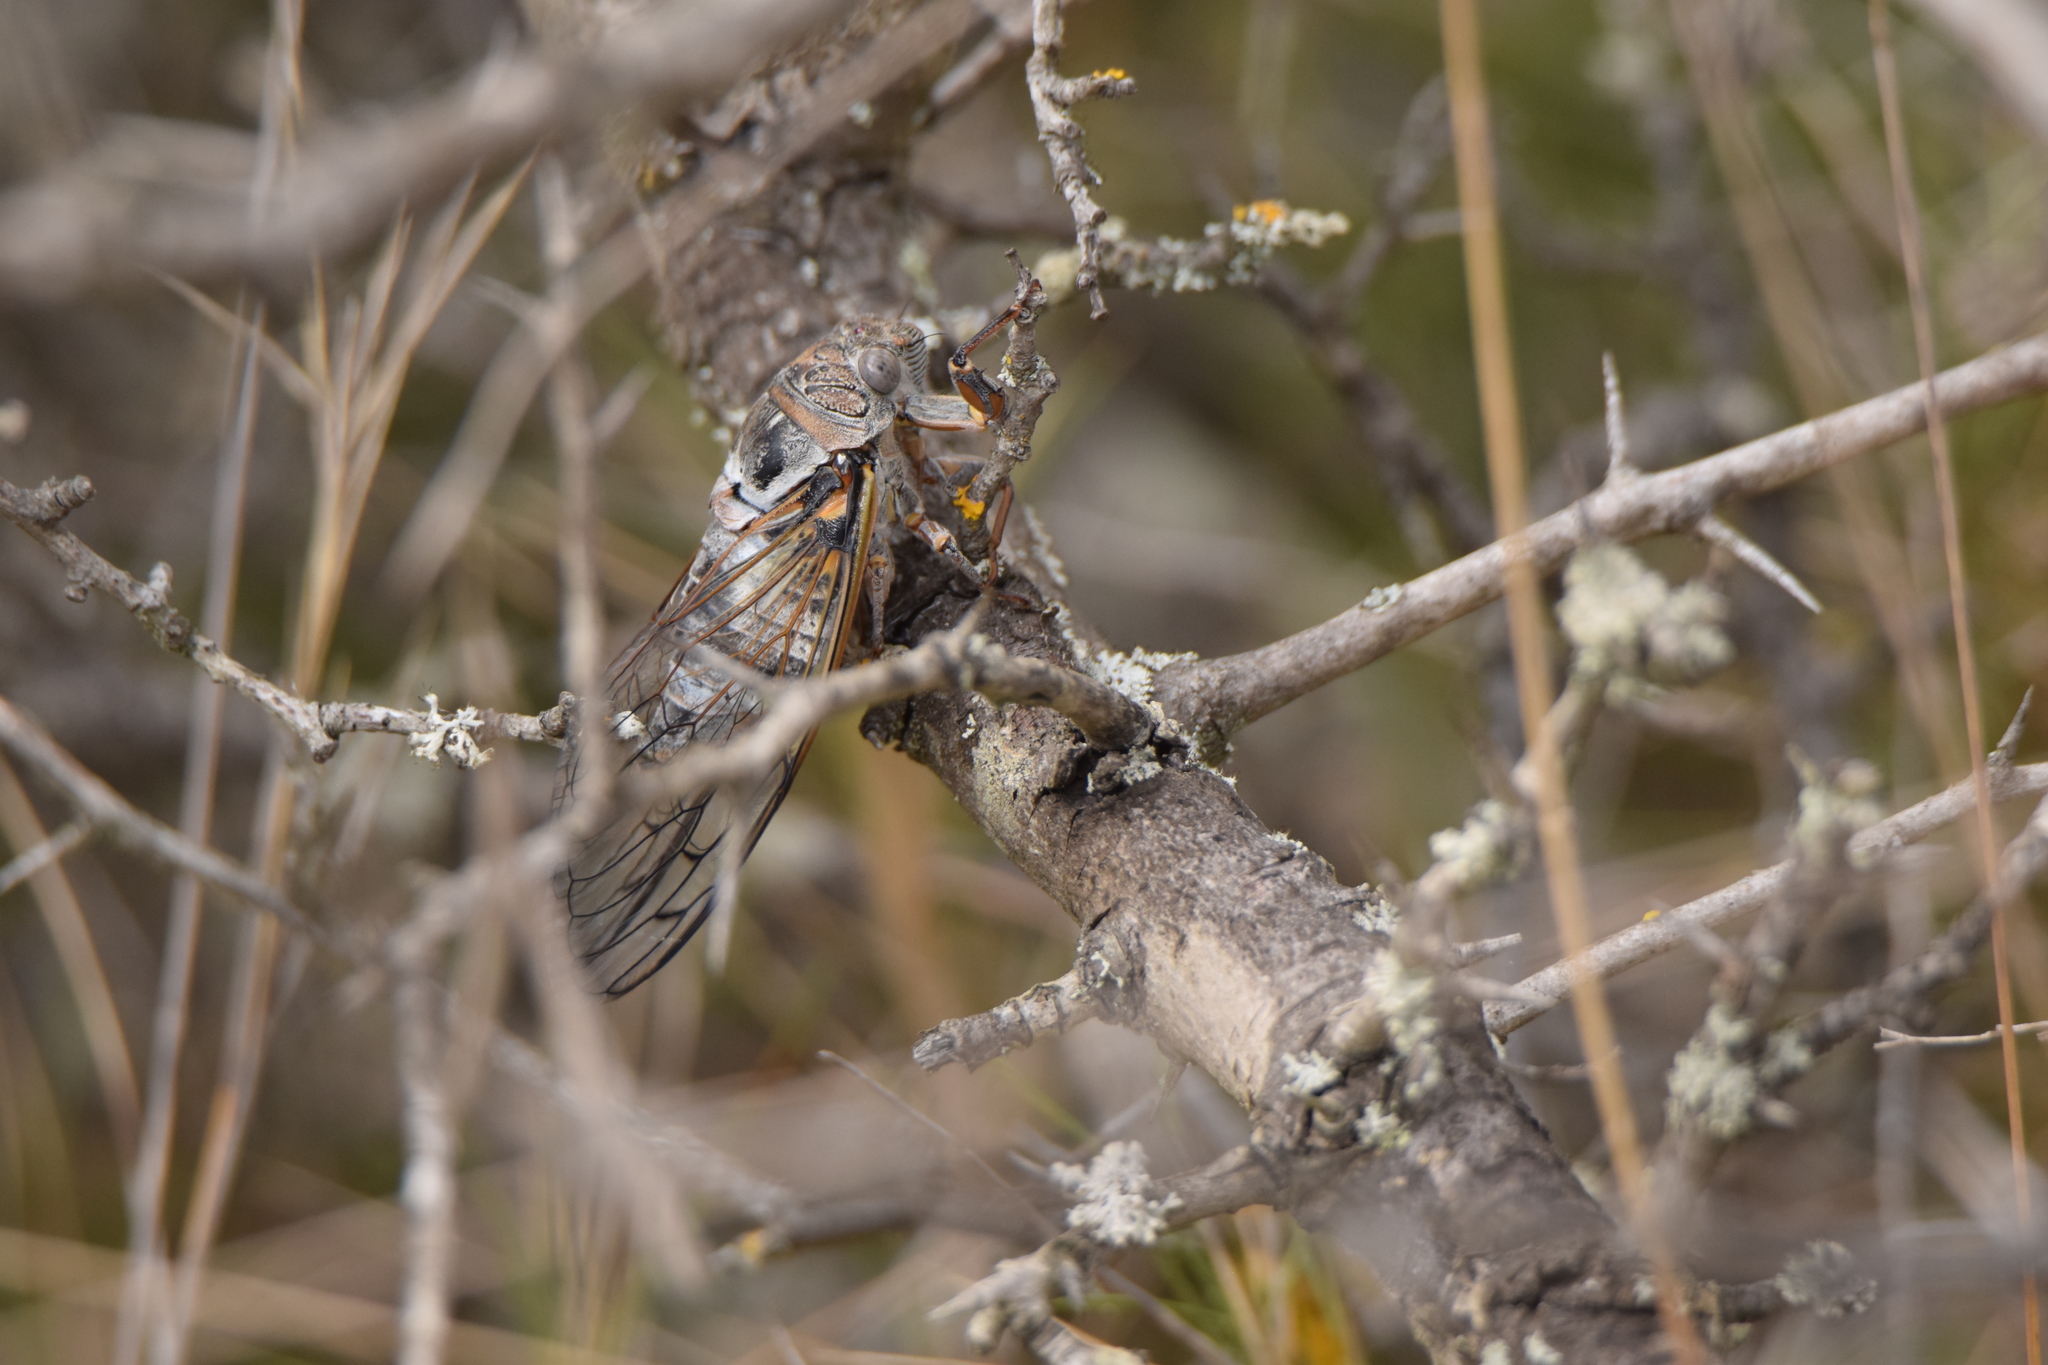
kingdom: Animalia
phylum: Arthropoda
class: Insecta
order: Hemiptera
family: Cicadidae
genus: Lyristes
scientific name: Lyristes plebejus
